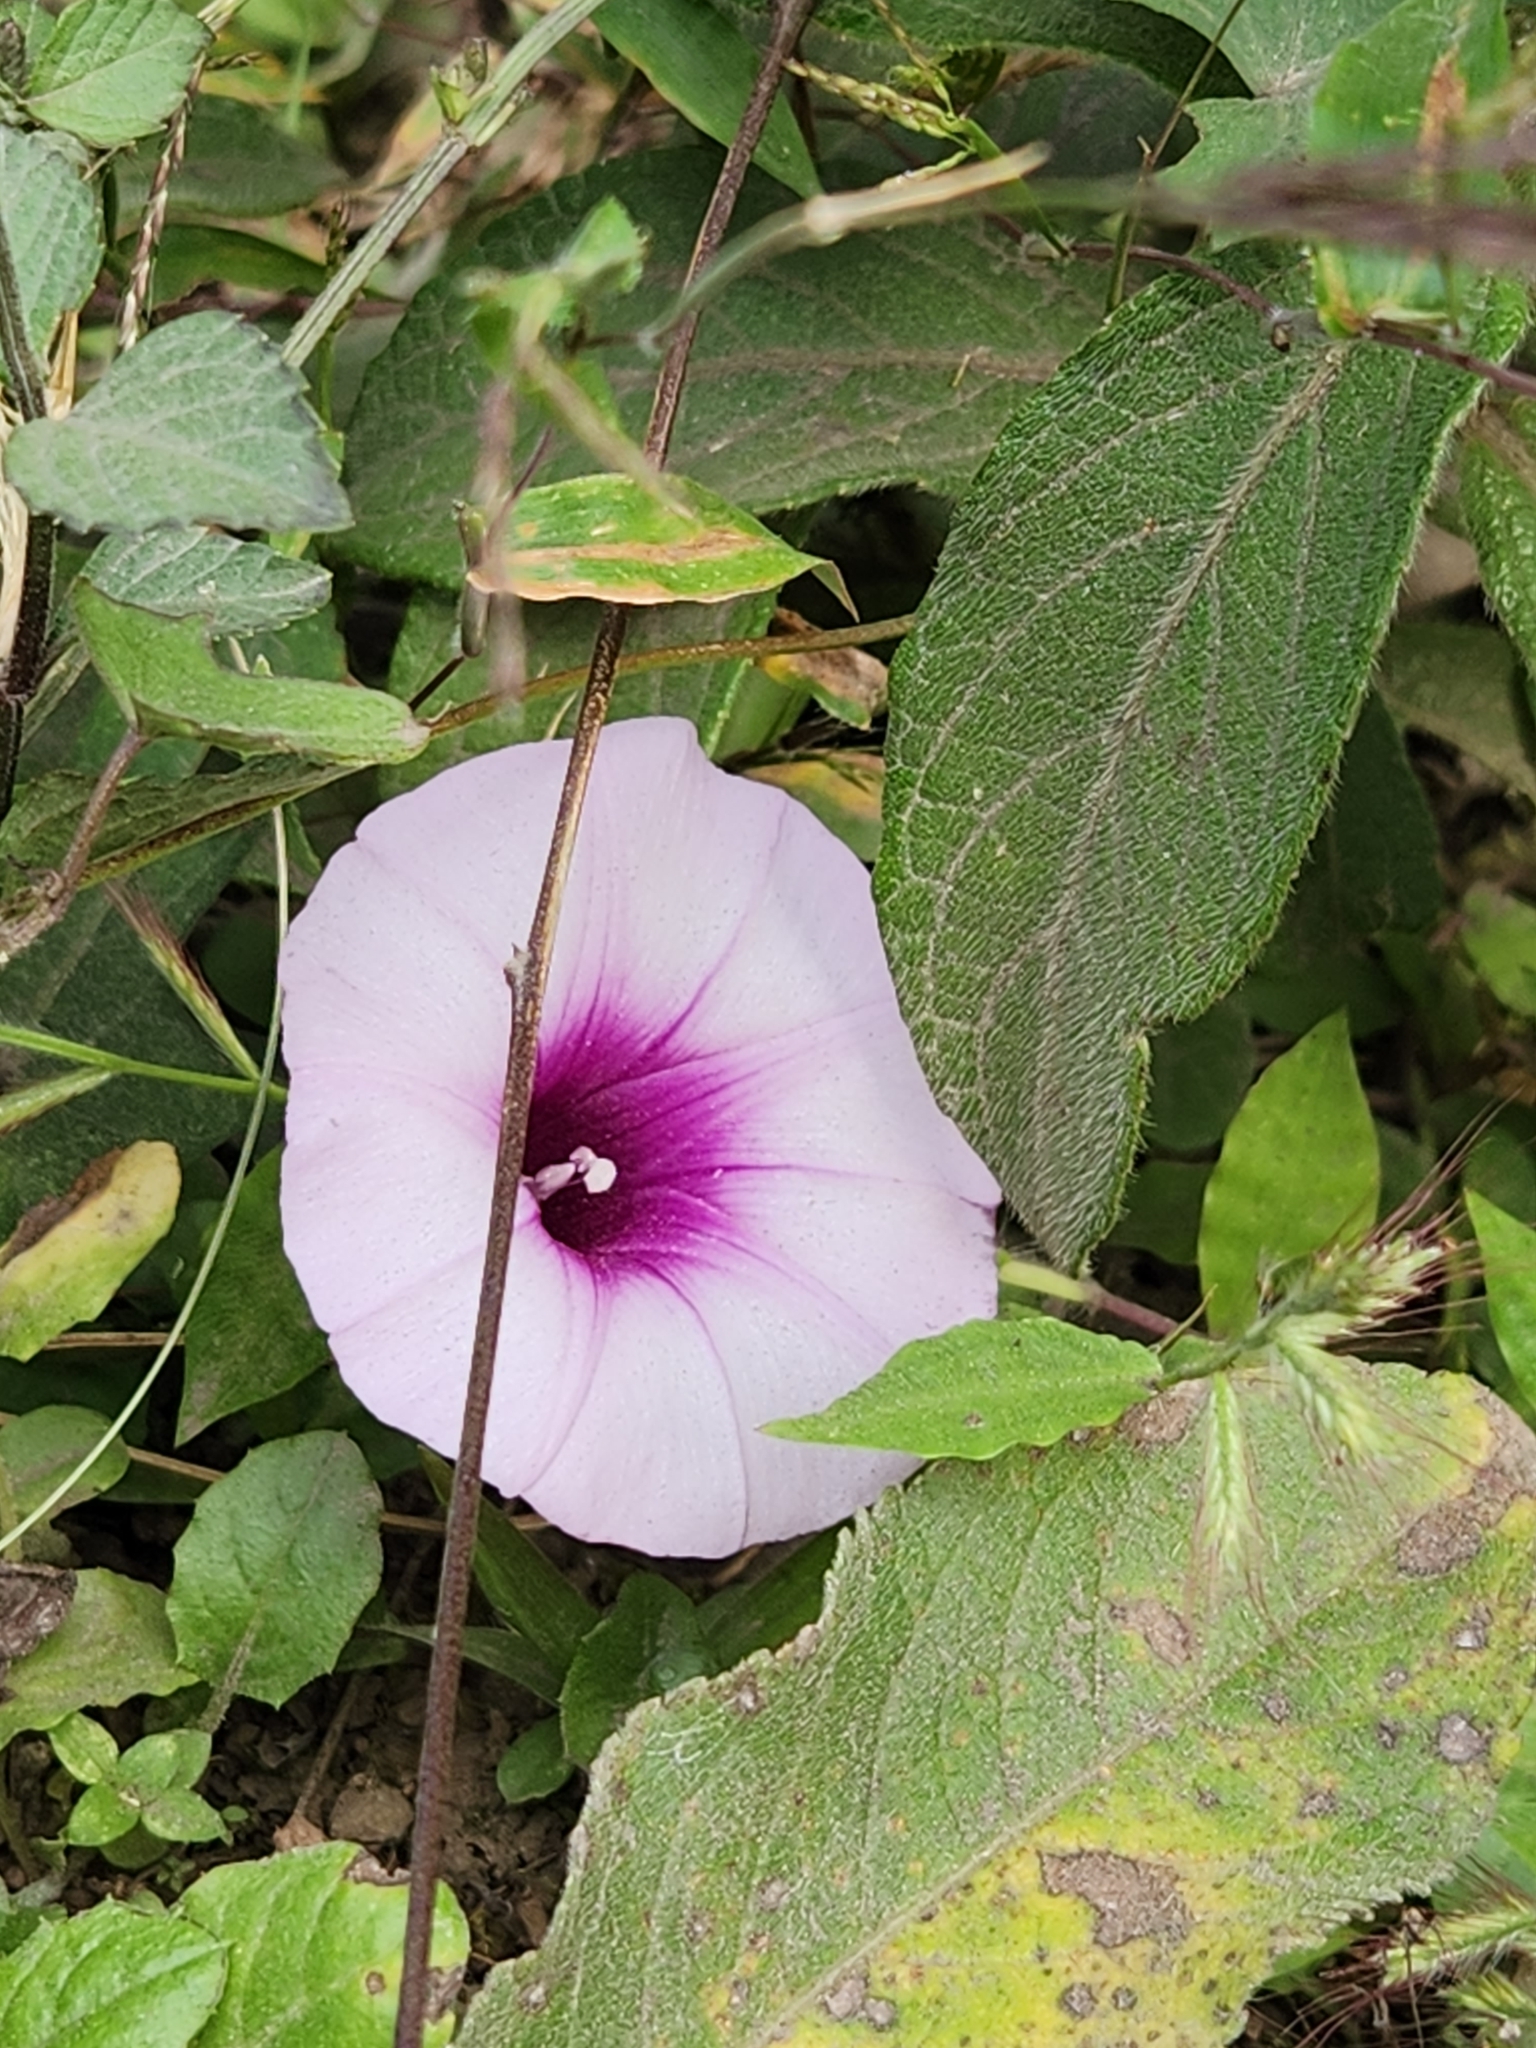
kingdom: Plantae
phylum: Tracheophyta
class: Magnoliopsida
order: Solanales
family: Convolvulaceae
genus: Ipomoea
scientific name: Ipomoea batatas
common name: Sweet-potato
